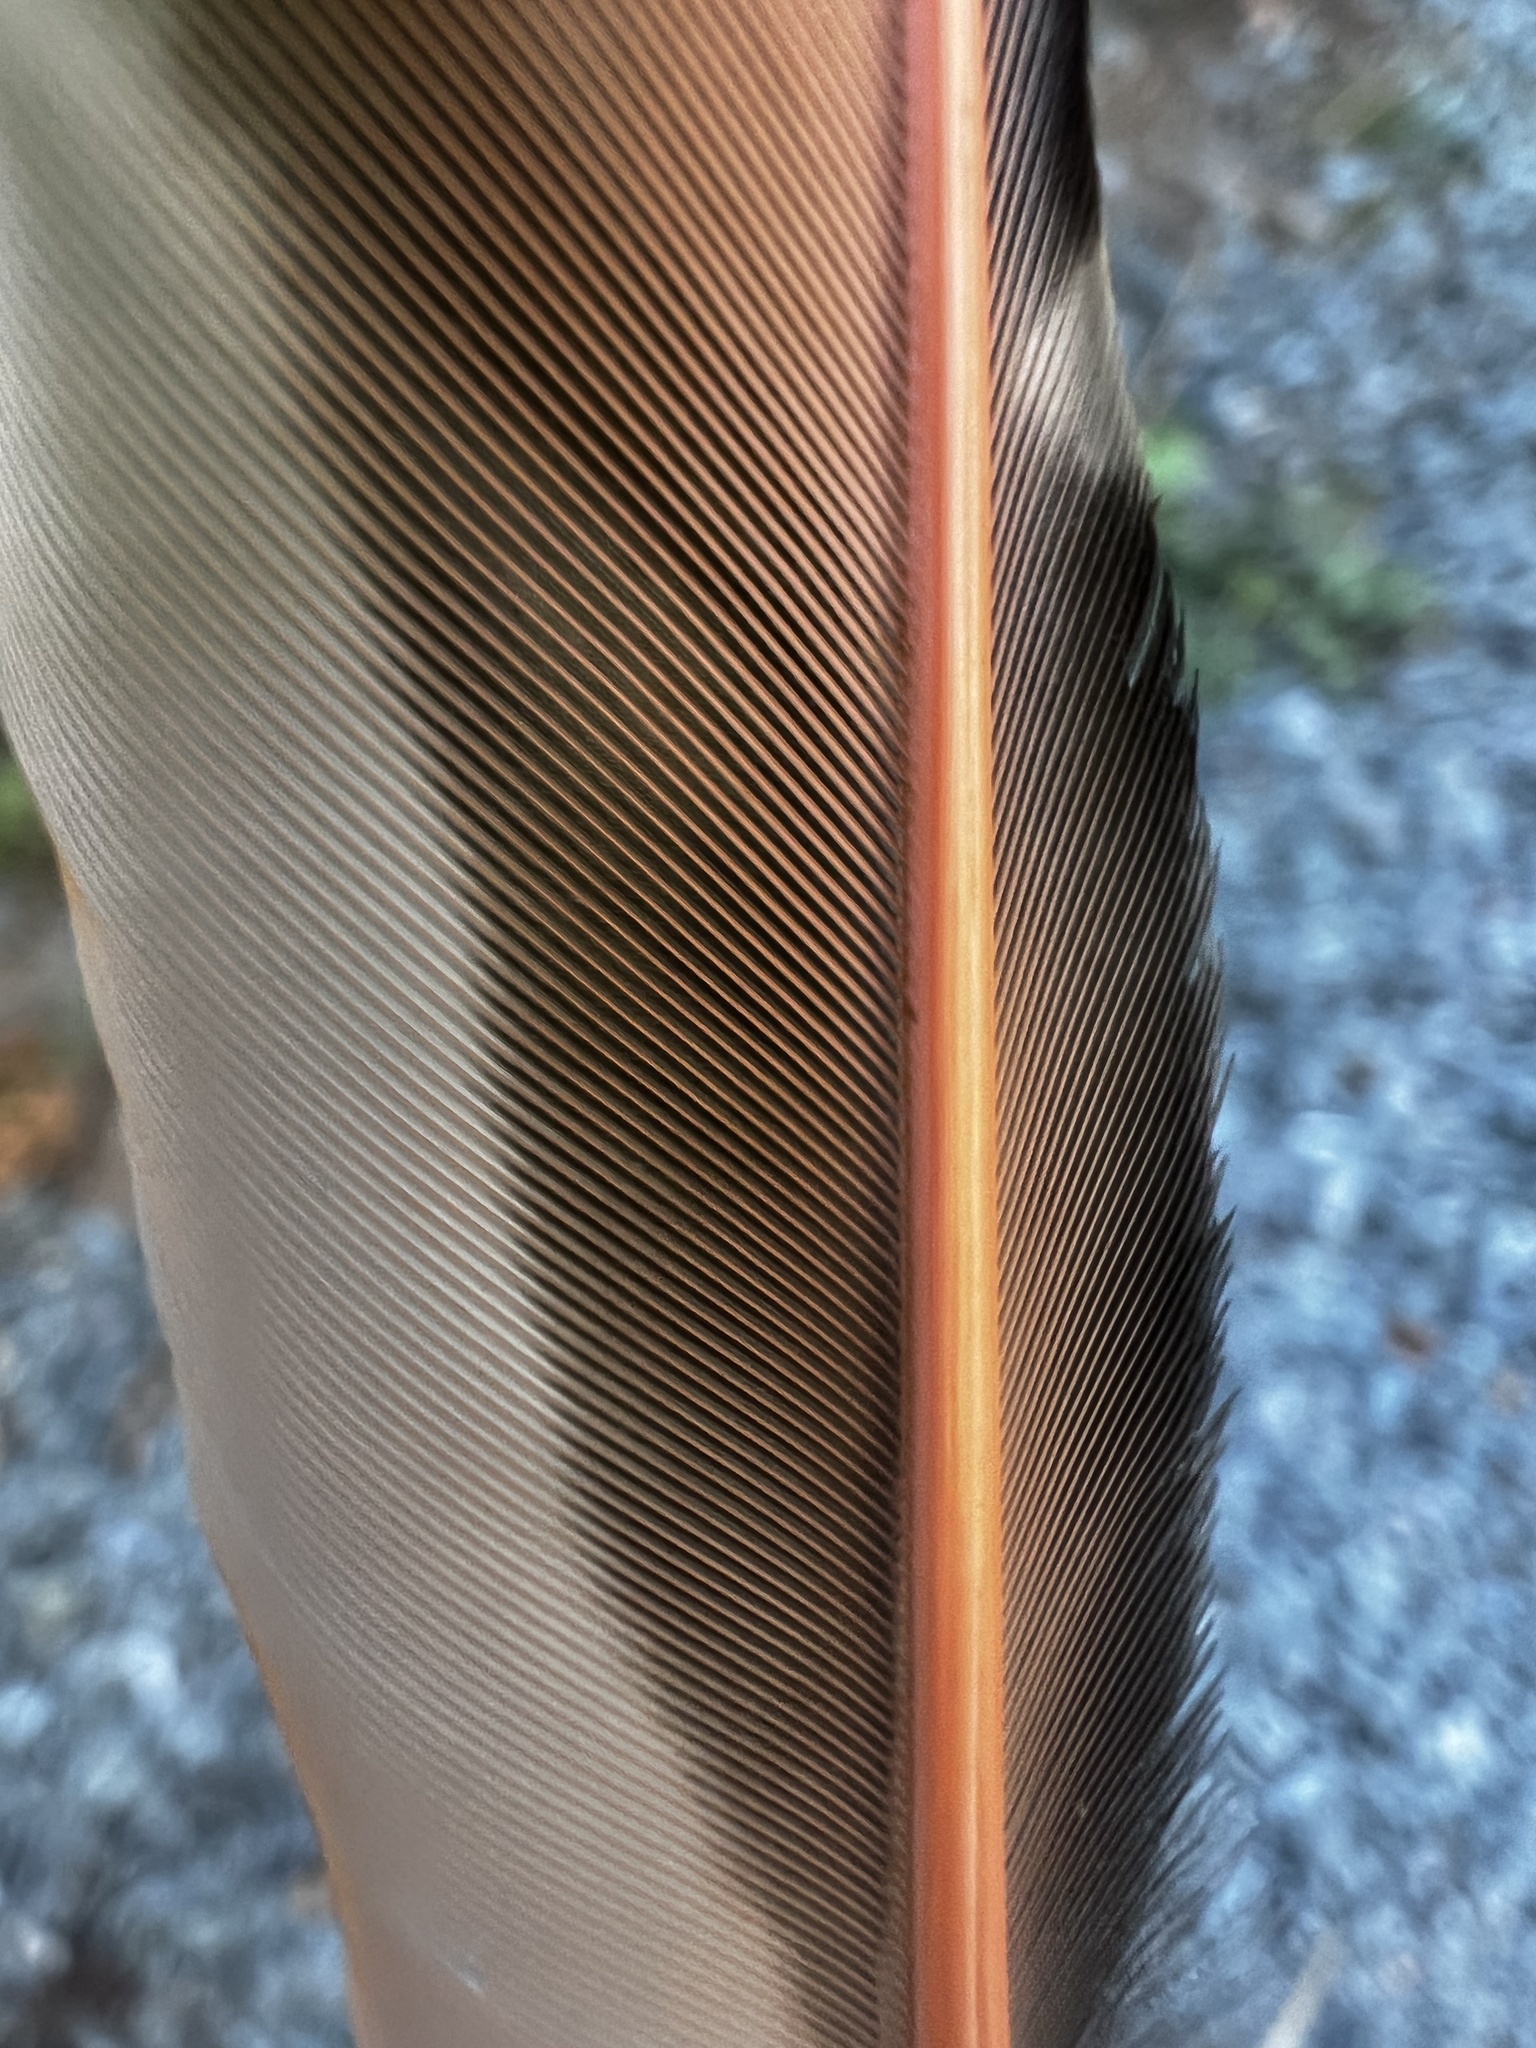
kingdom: Animalia
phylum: Chordata
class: Aves
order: Piciformes
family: Picidae
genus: Colaptes
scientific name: Colaptes auratus
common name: Northern flicker
